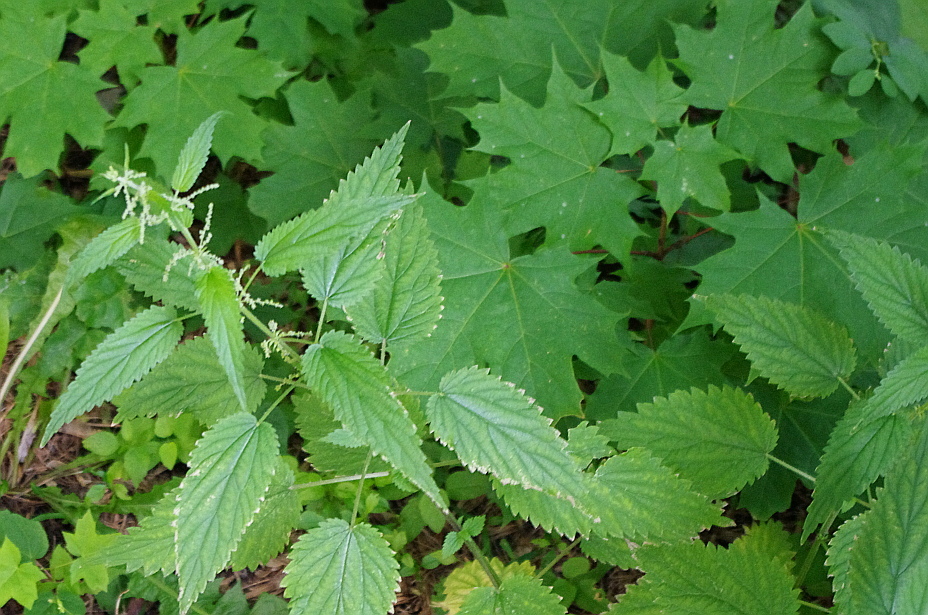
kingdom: Plantae
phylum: Tracheophyta
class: Magnoliopsida
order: Sapindales
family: Sapindaceae
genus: Acer
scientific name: Acer platanoides
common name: Norway maple
